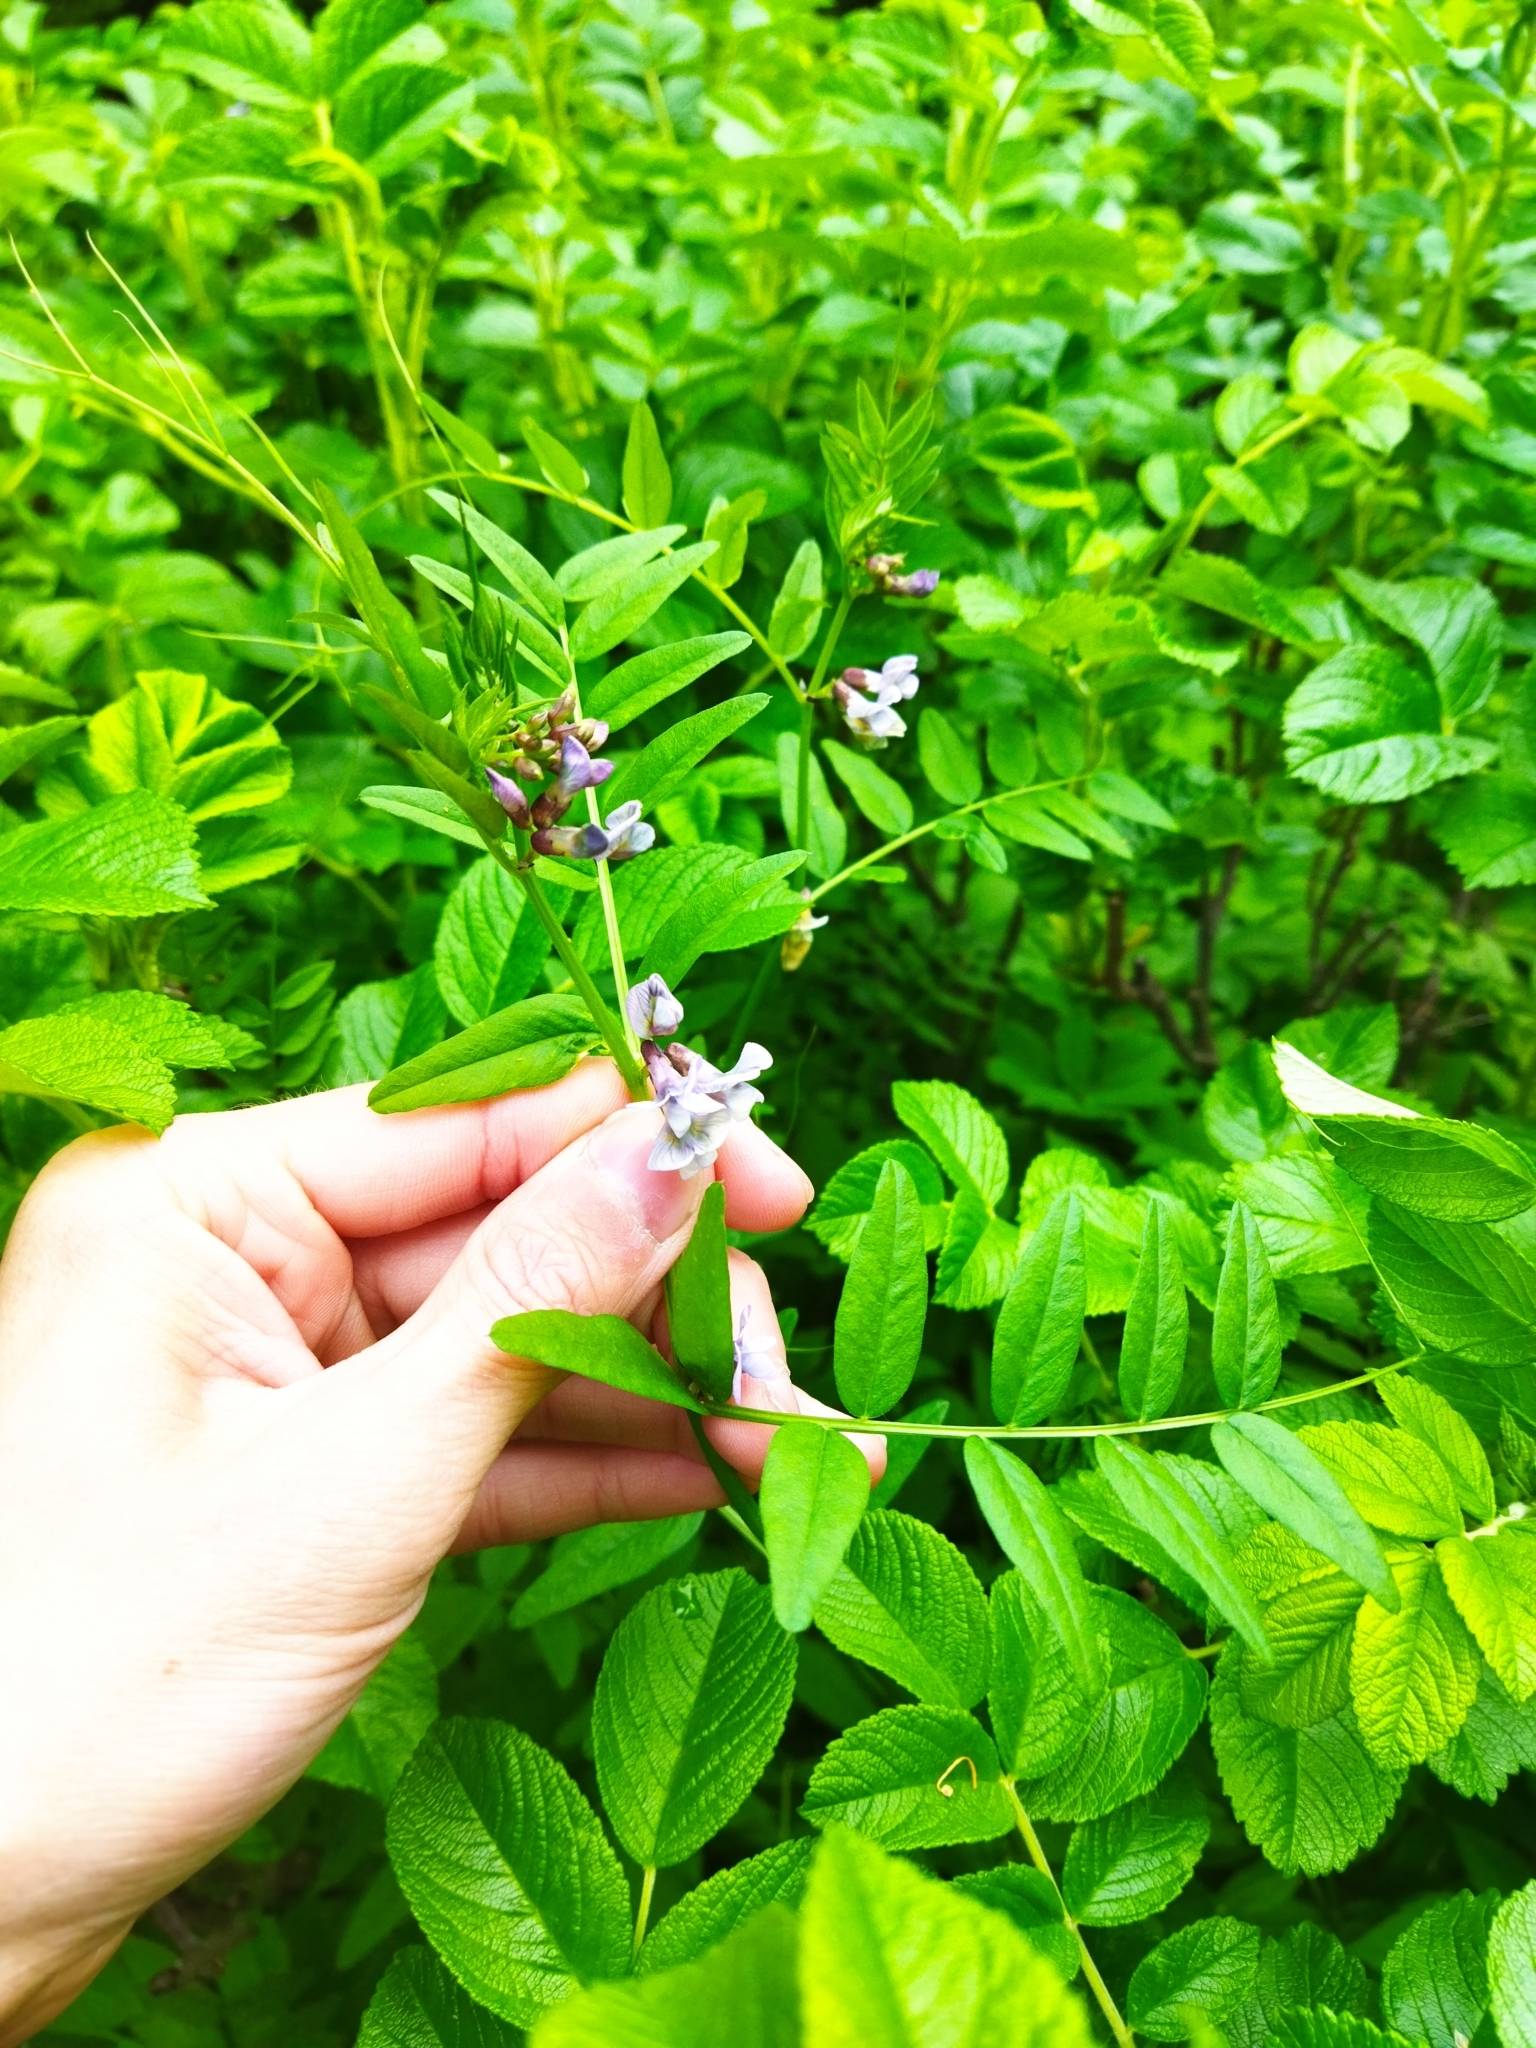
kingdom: Plantae
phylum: Tracheophyta
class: Magnoliopsida
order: Fabales
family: Fabaceae
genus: Vicia
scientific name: Vicia sepium
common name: Bush vetch
